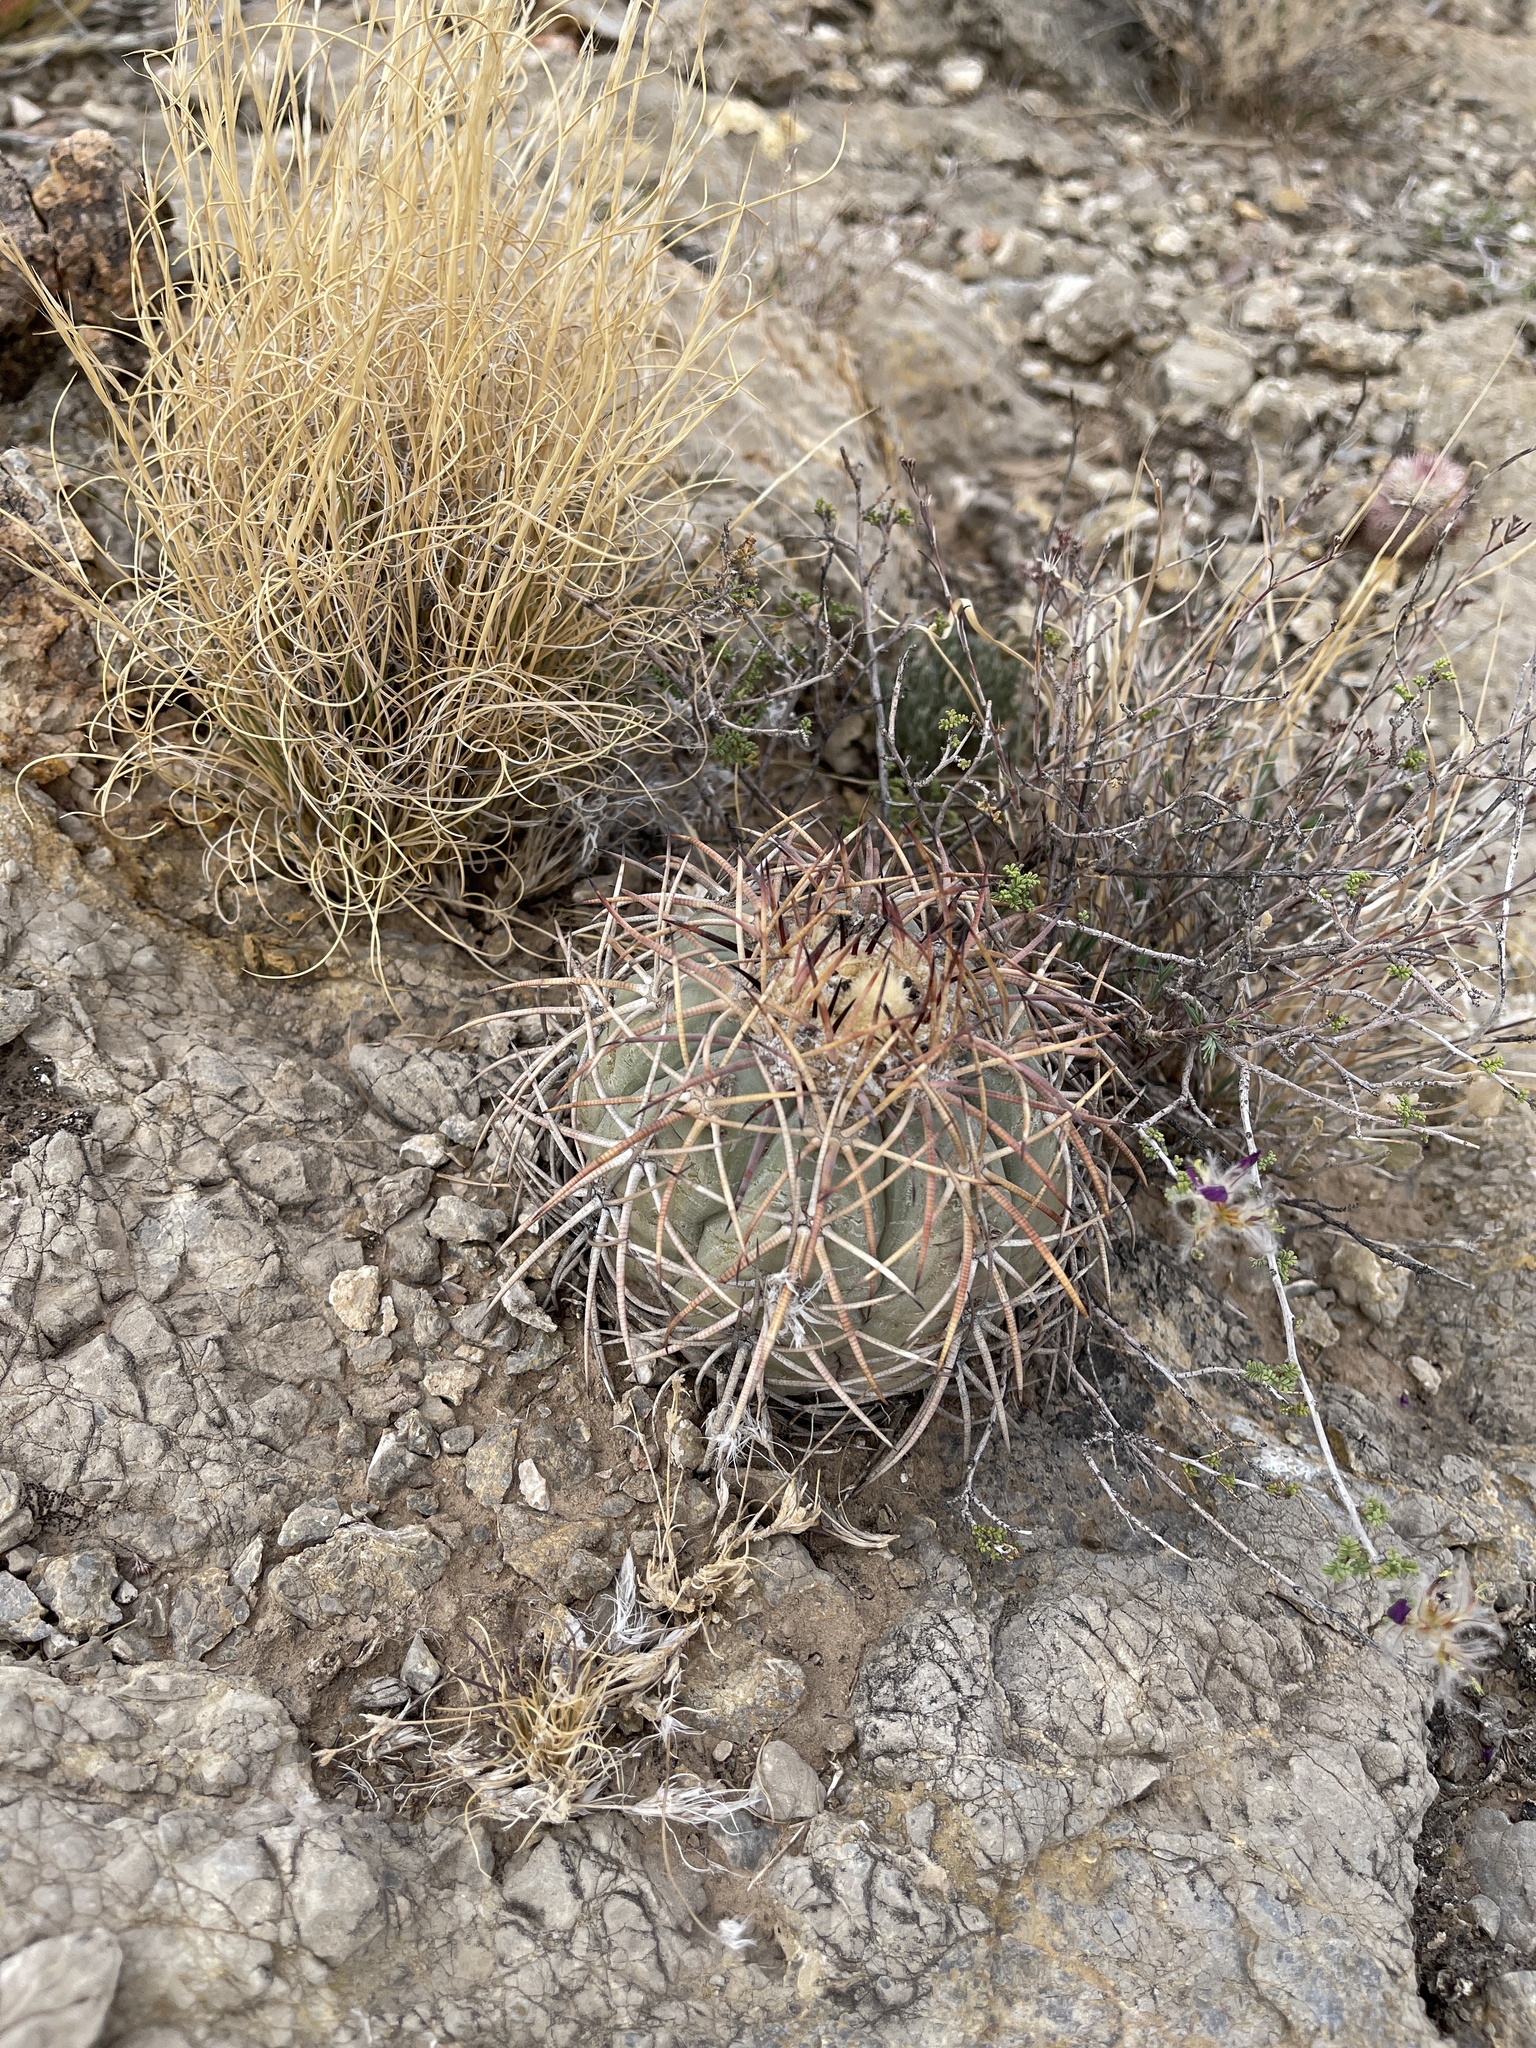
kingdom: Plantae
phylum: Tracheophyta
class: Magnoliopsida
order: Caryophyllales
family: Cactaceae
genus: Echinocactus
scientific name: Echinocactus horizonthalonius
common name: Devilshead
